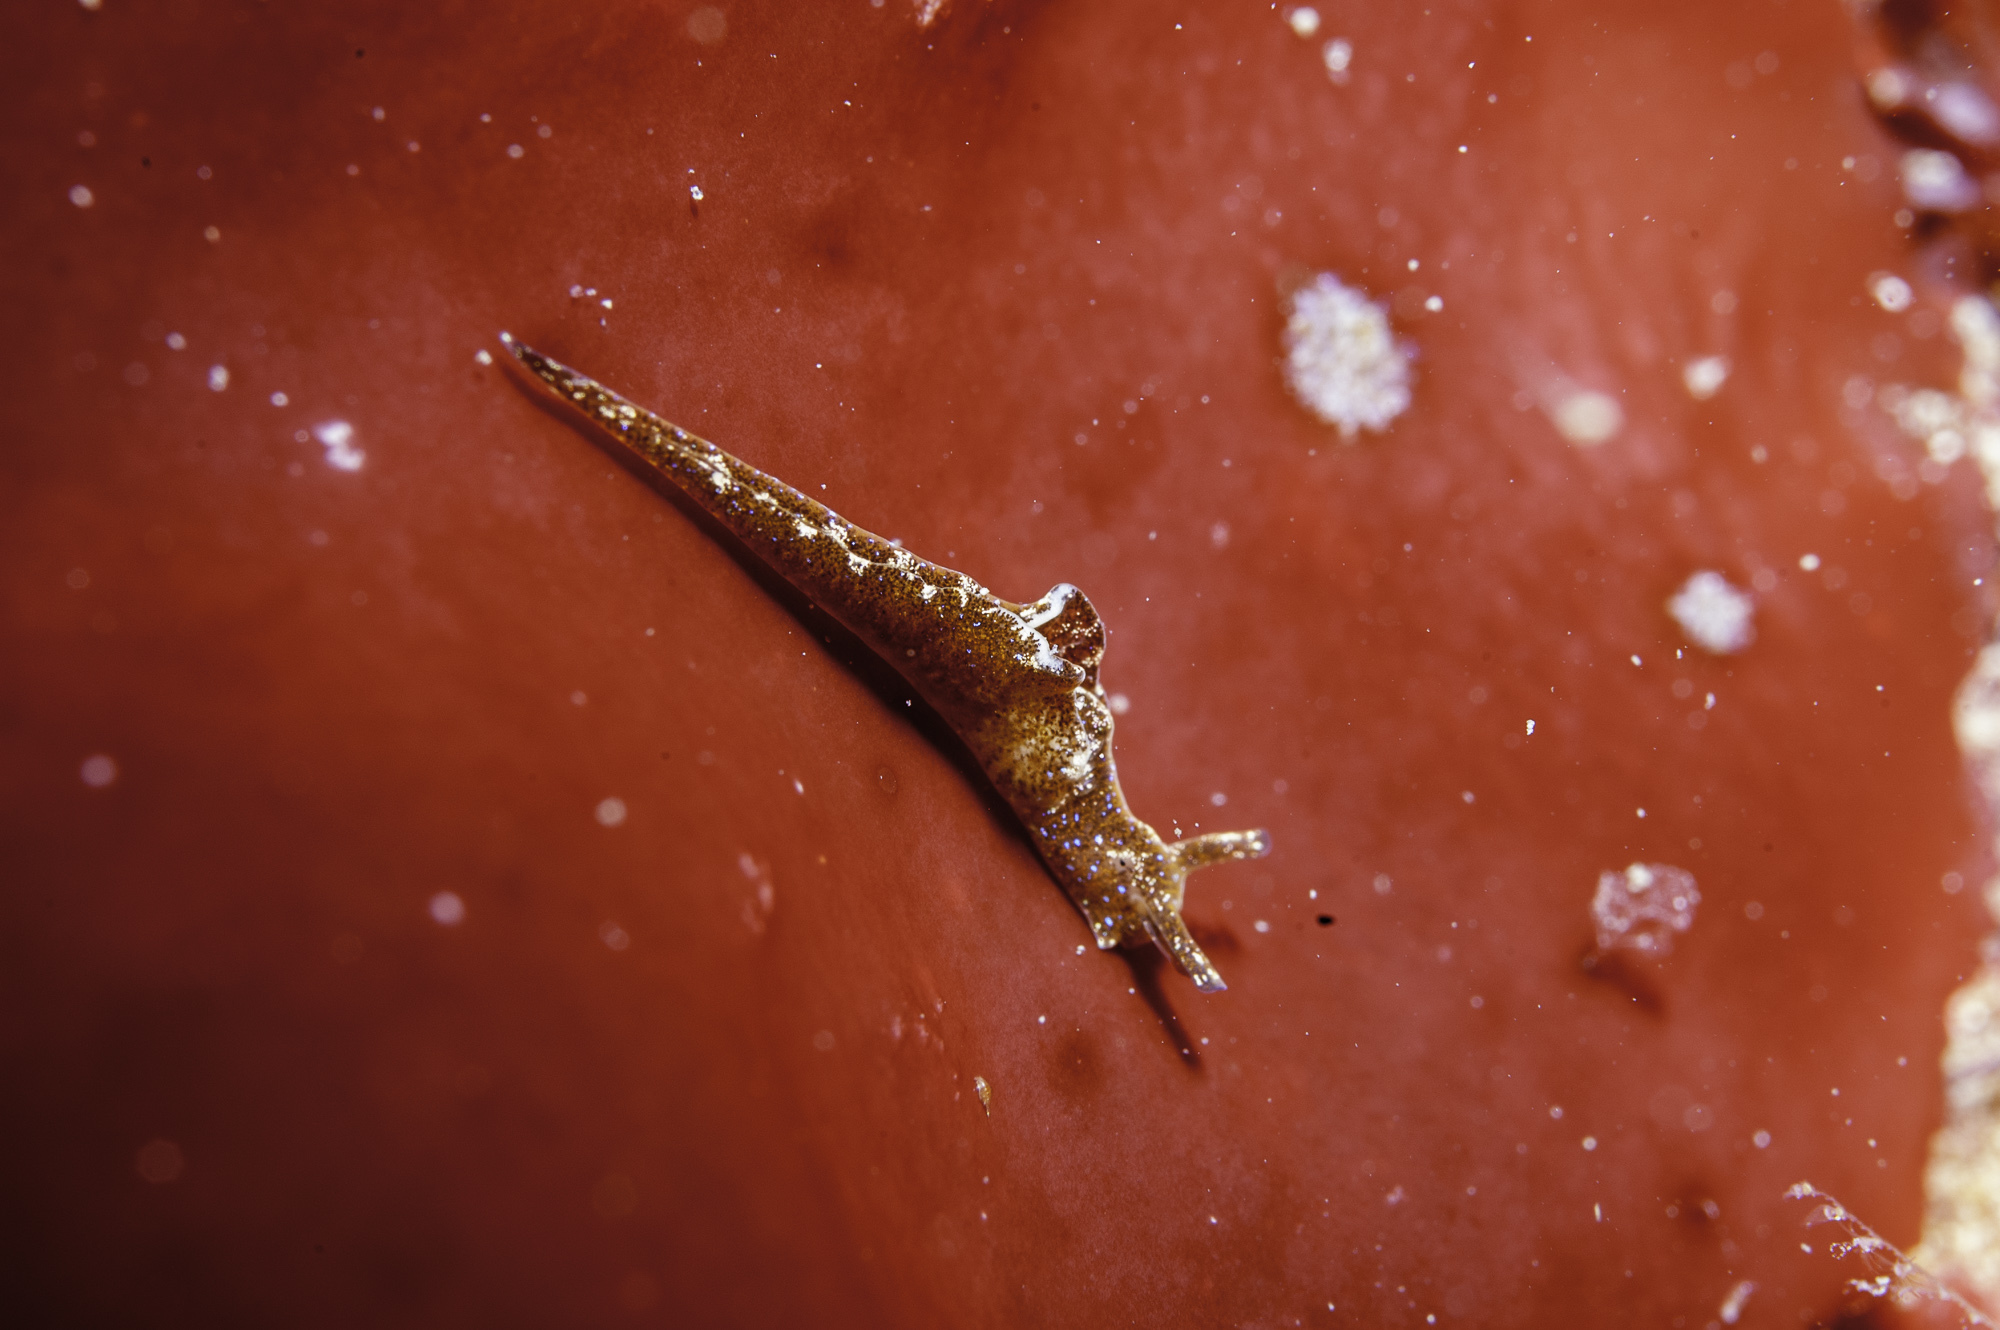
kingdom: Animalia
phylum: Mollusca
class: Gastropoda
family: Plakobranchidae
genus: Elysia
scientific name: Elysia viridis
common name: Green elysia
